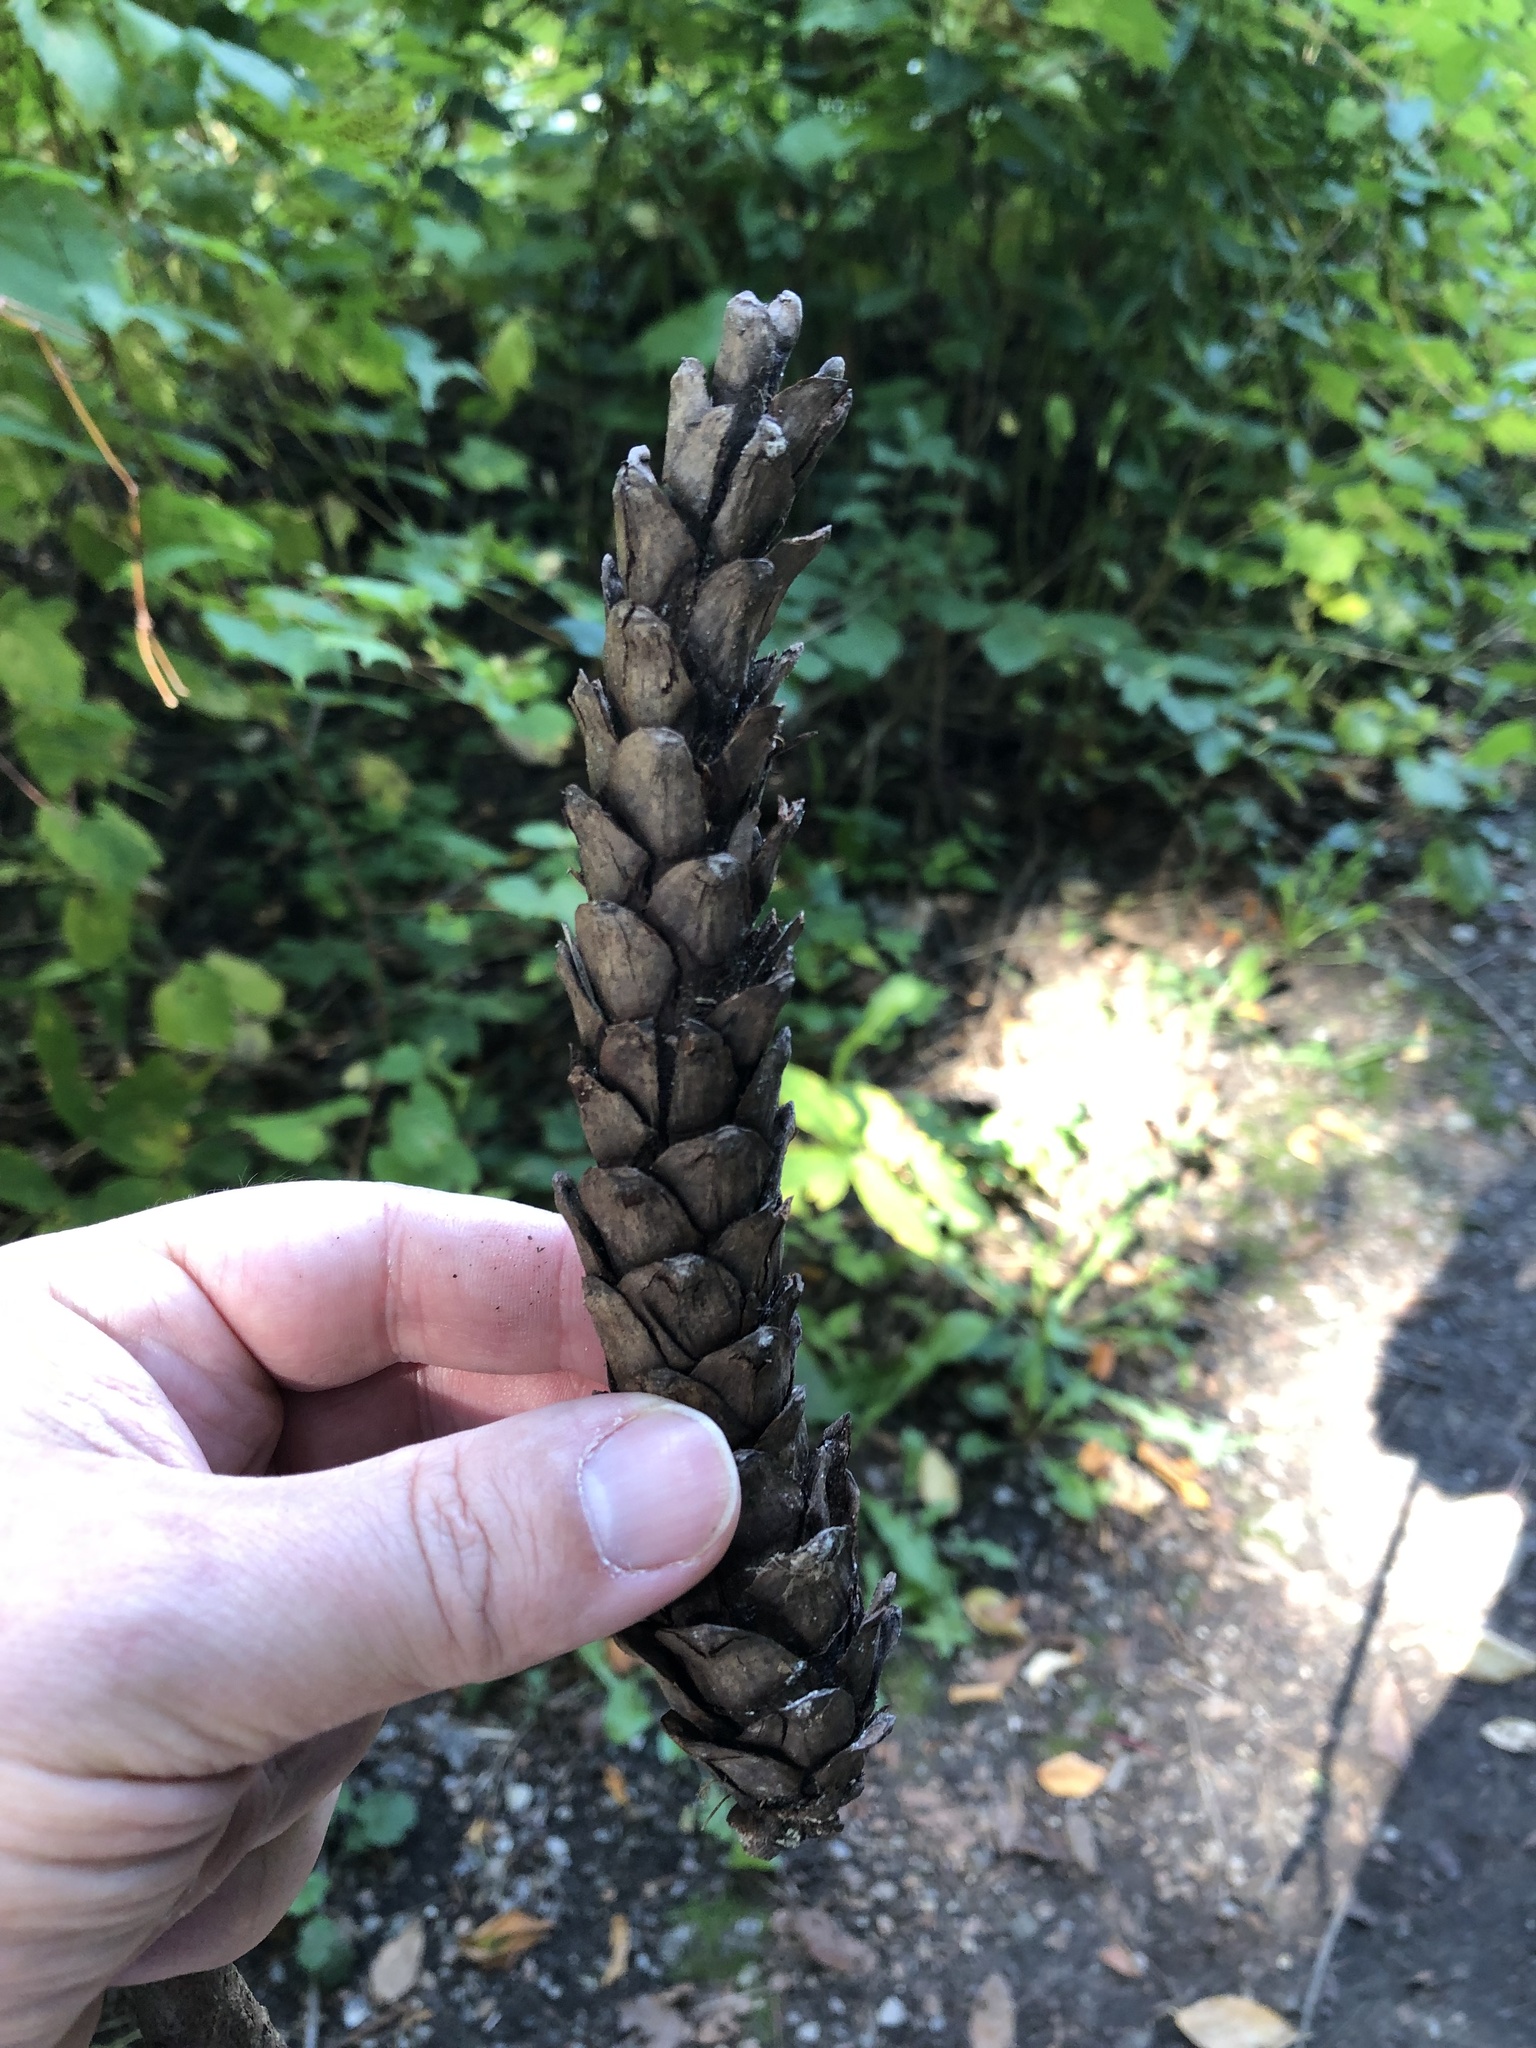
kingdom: Plantae
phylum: Tracheophyta
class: Pinopsida
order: Pinales
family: Pinaceae
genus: Pinus
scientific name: Pinus strobus
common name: Weymouth pine
